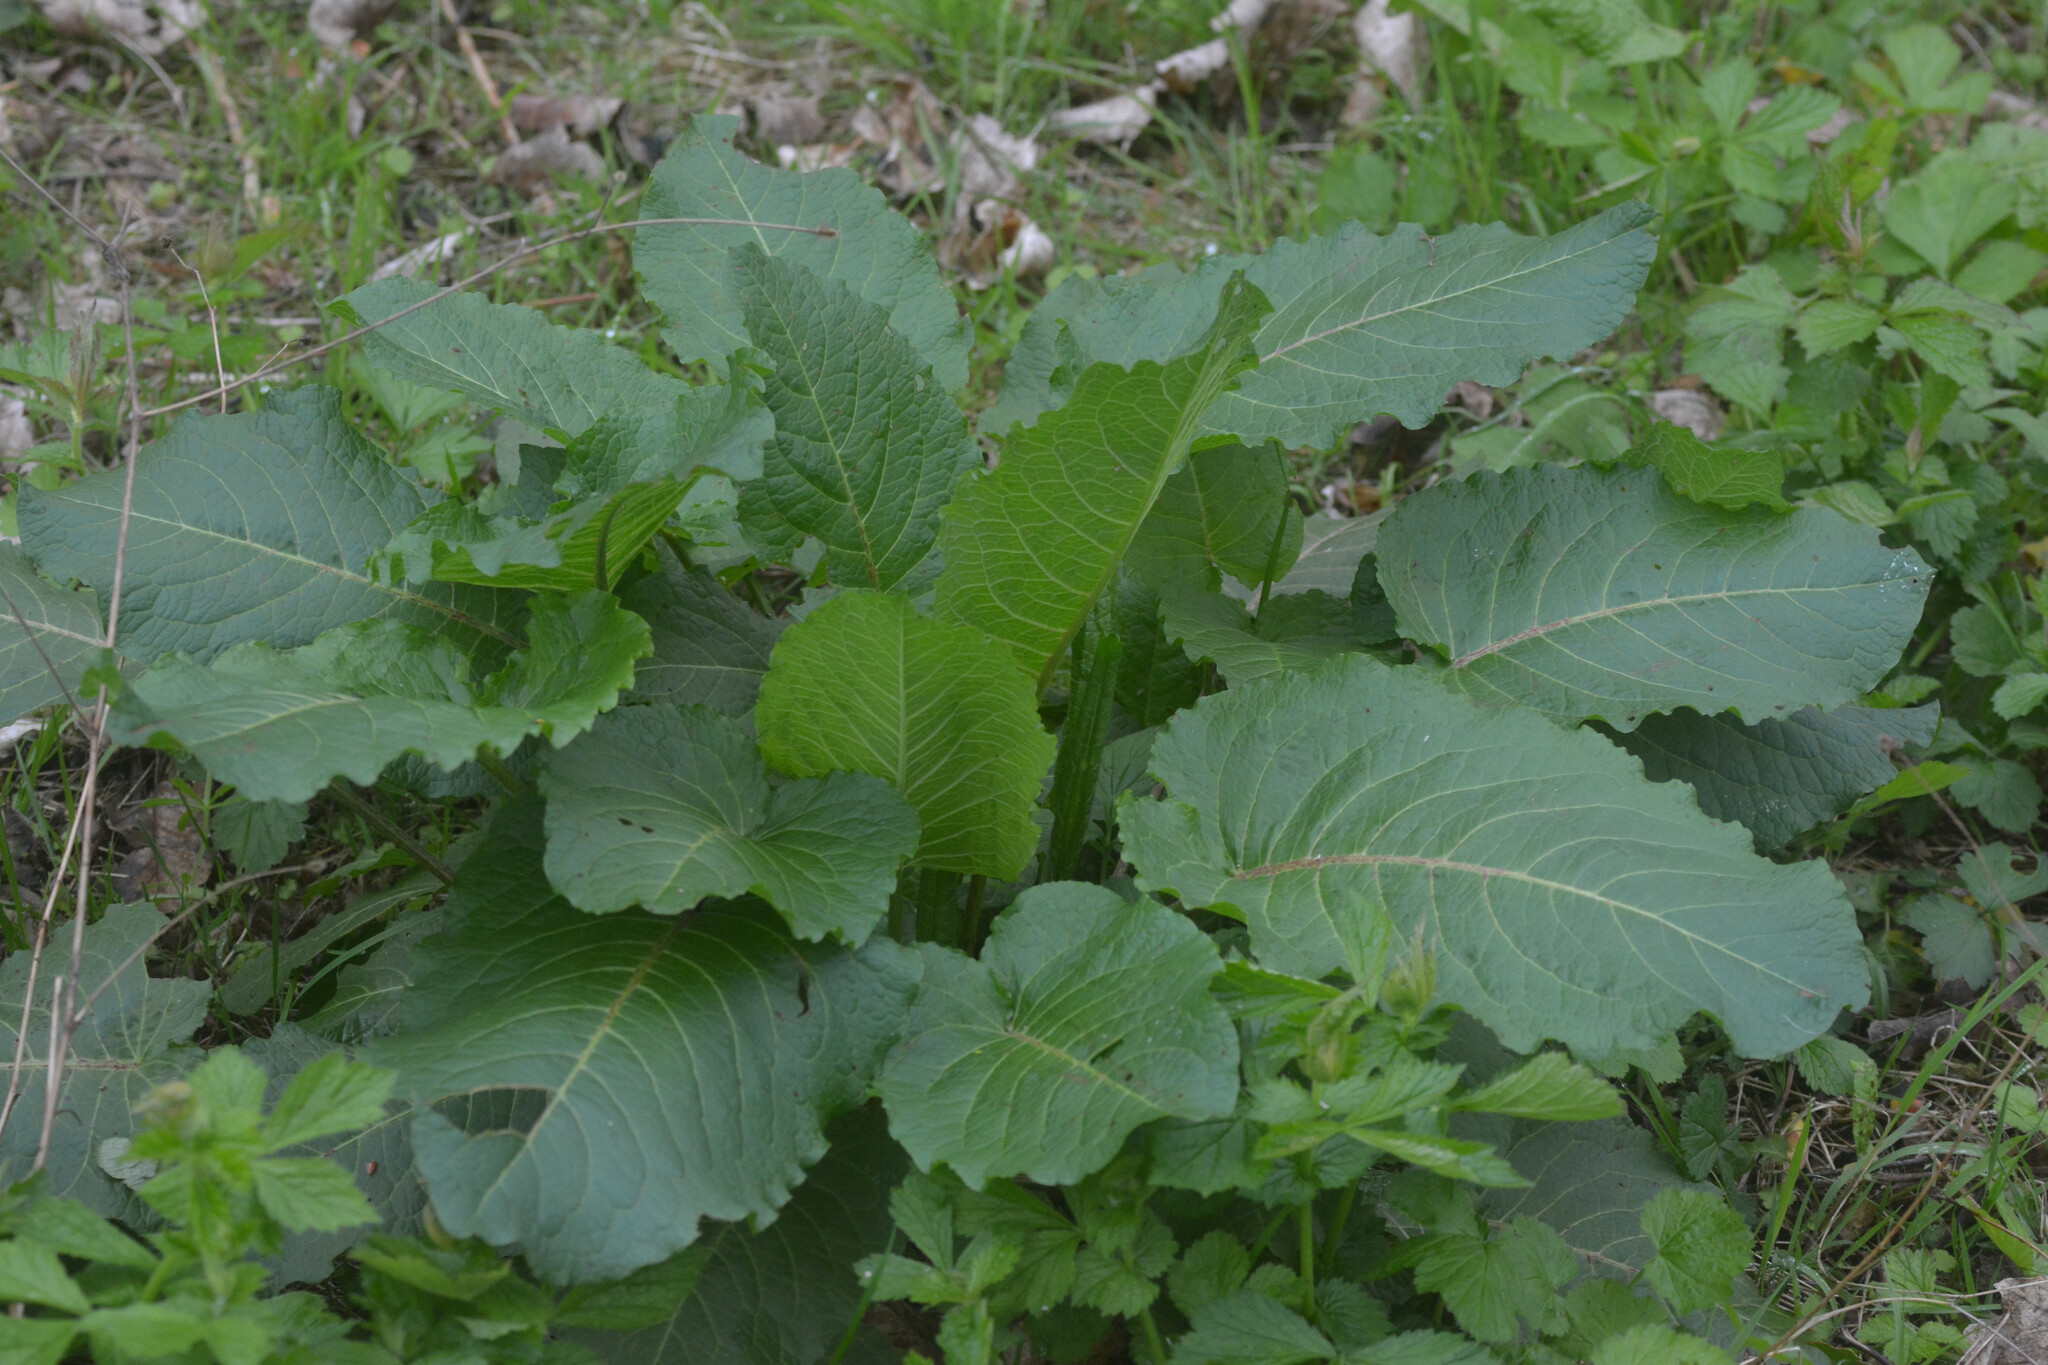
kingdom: Plantae
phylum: Tracheophyta
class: Magnoliopsida
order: Caryophyllales
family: Polygonaceae
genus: Rumex
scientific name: Rumex obtusifolius
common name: Bitter dock
